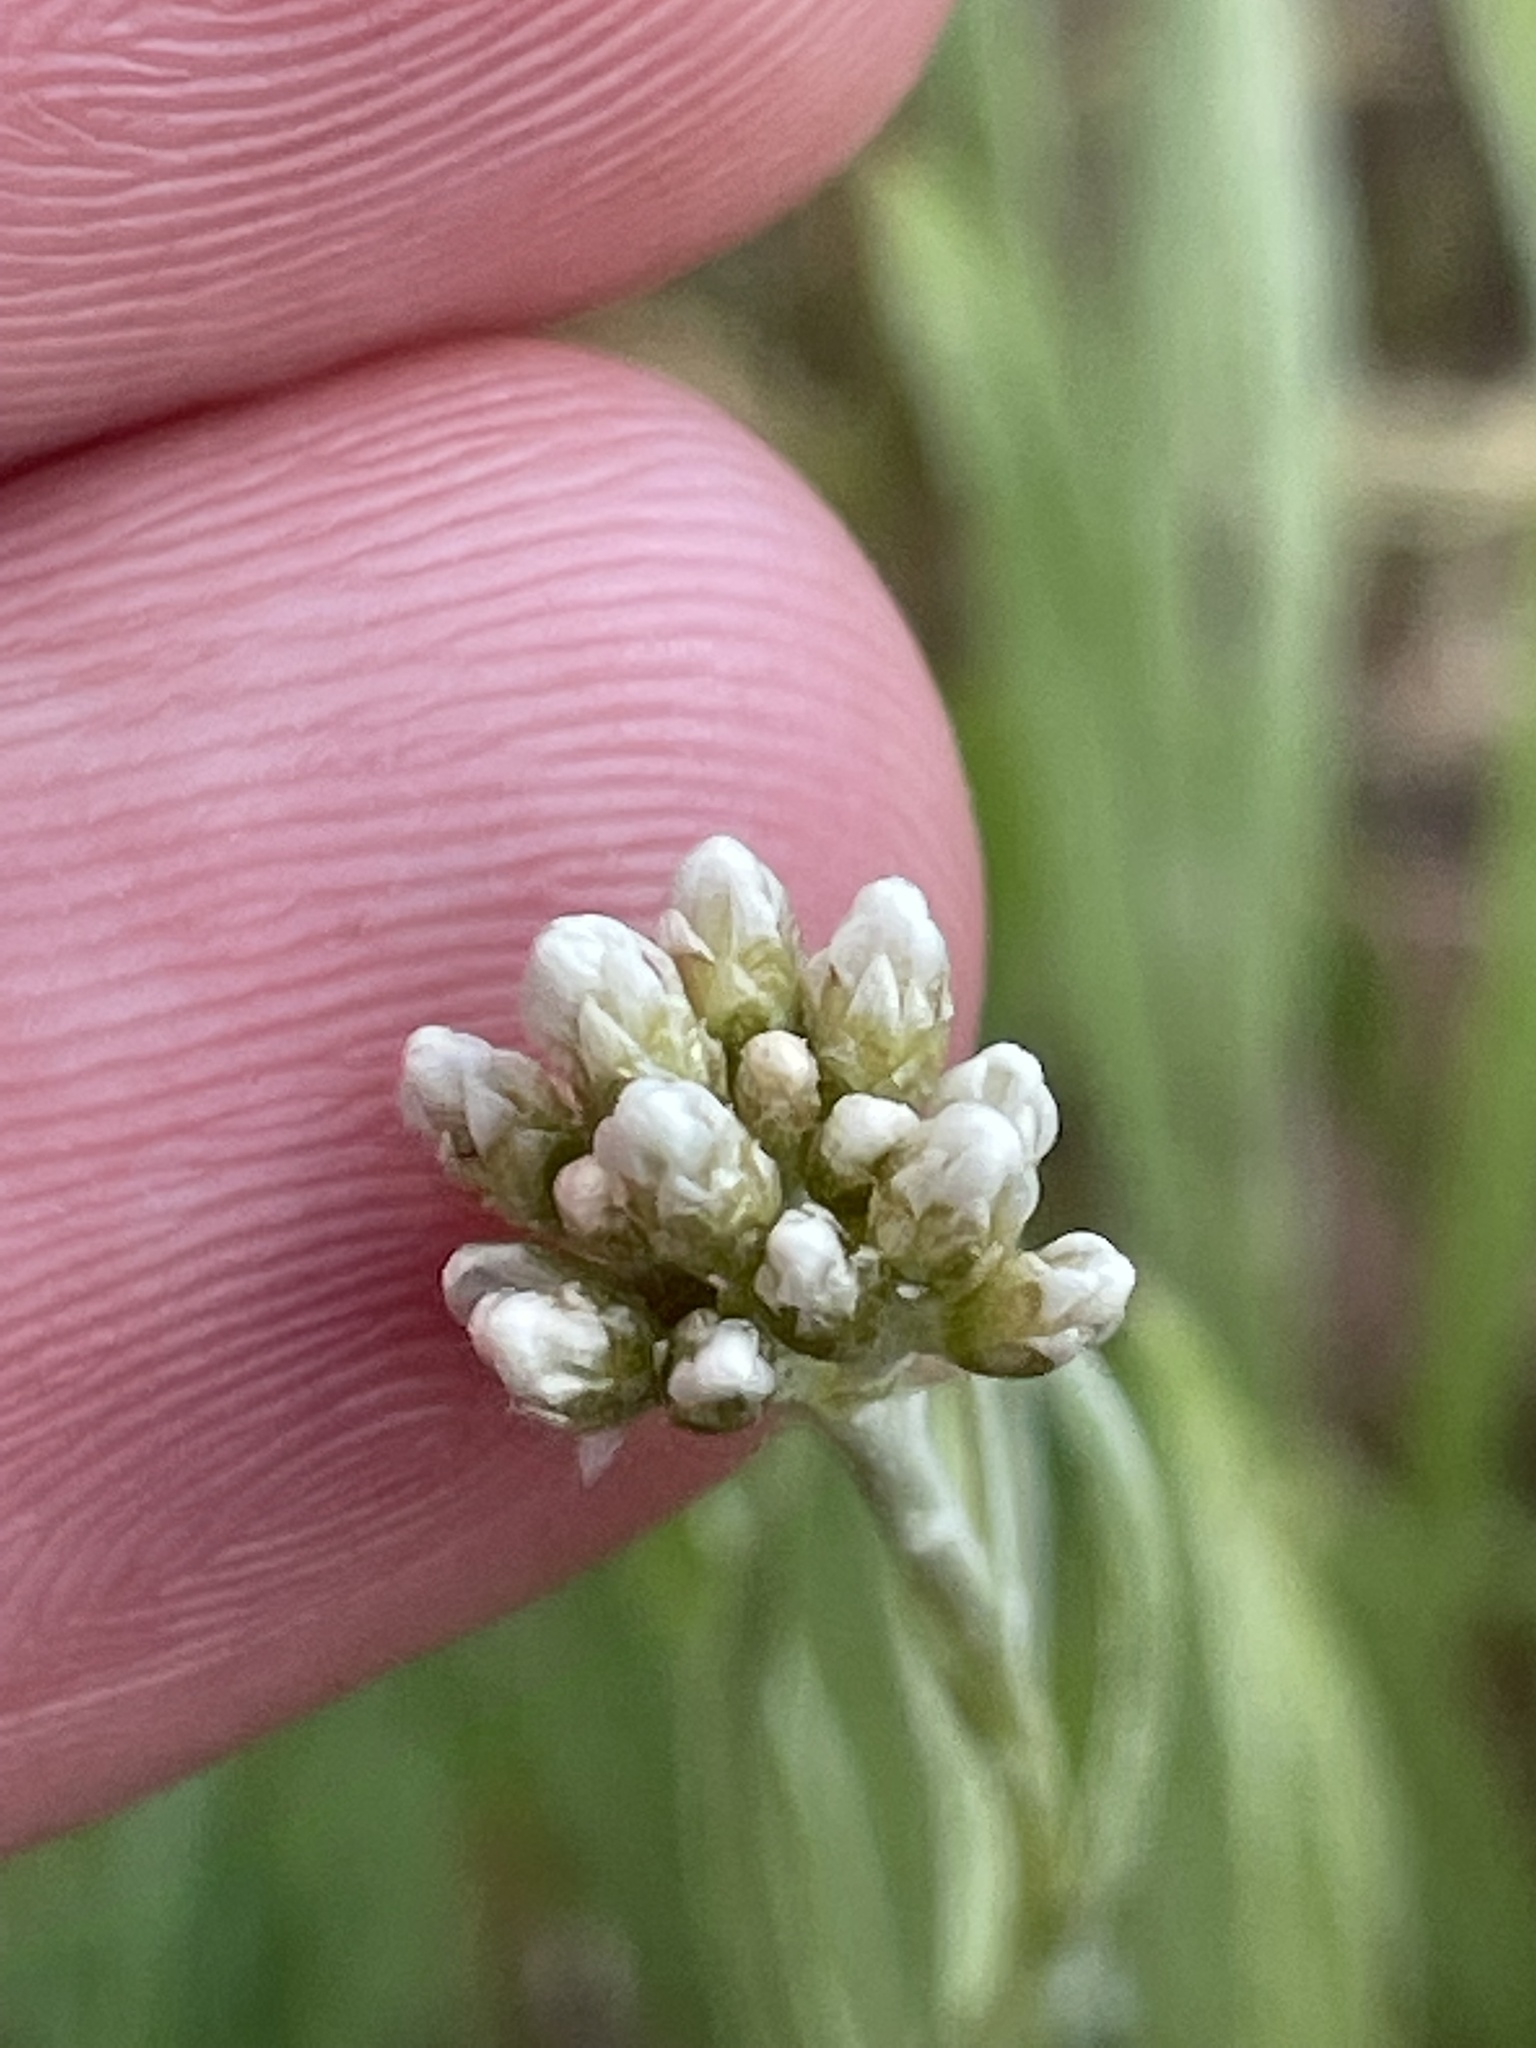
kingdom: Plantae
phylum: Tracheophyta
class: Magnoliopsida
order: Asterales
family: Asteraceae
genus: Antennaria
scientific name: Antennaria luzuloides
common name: Rush pussytoes
